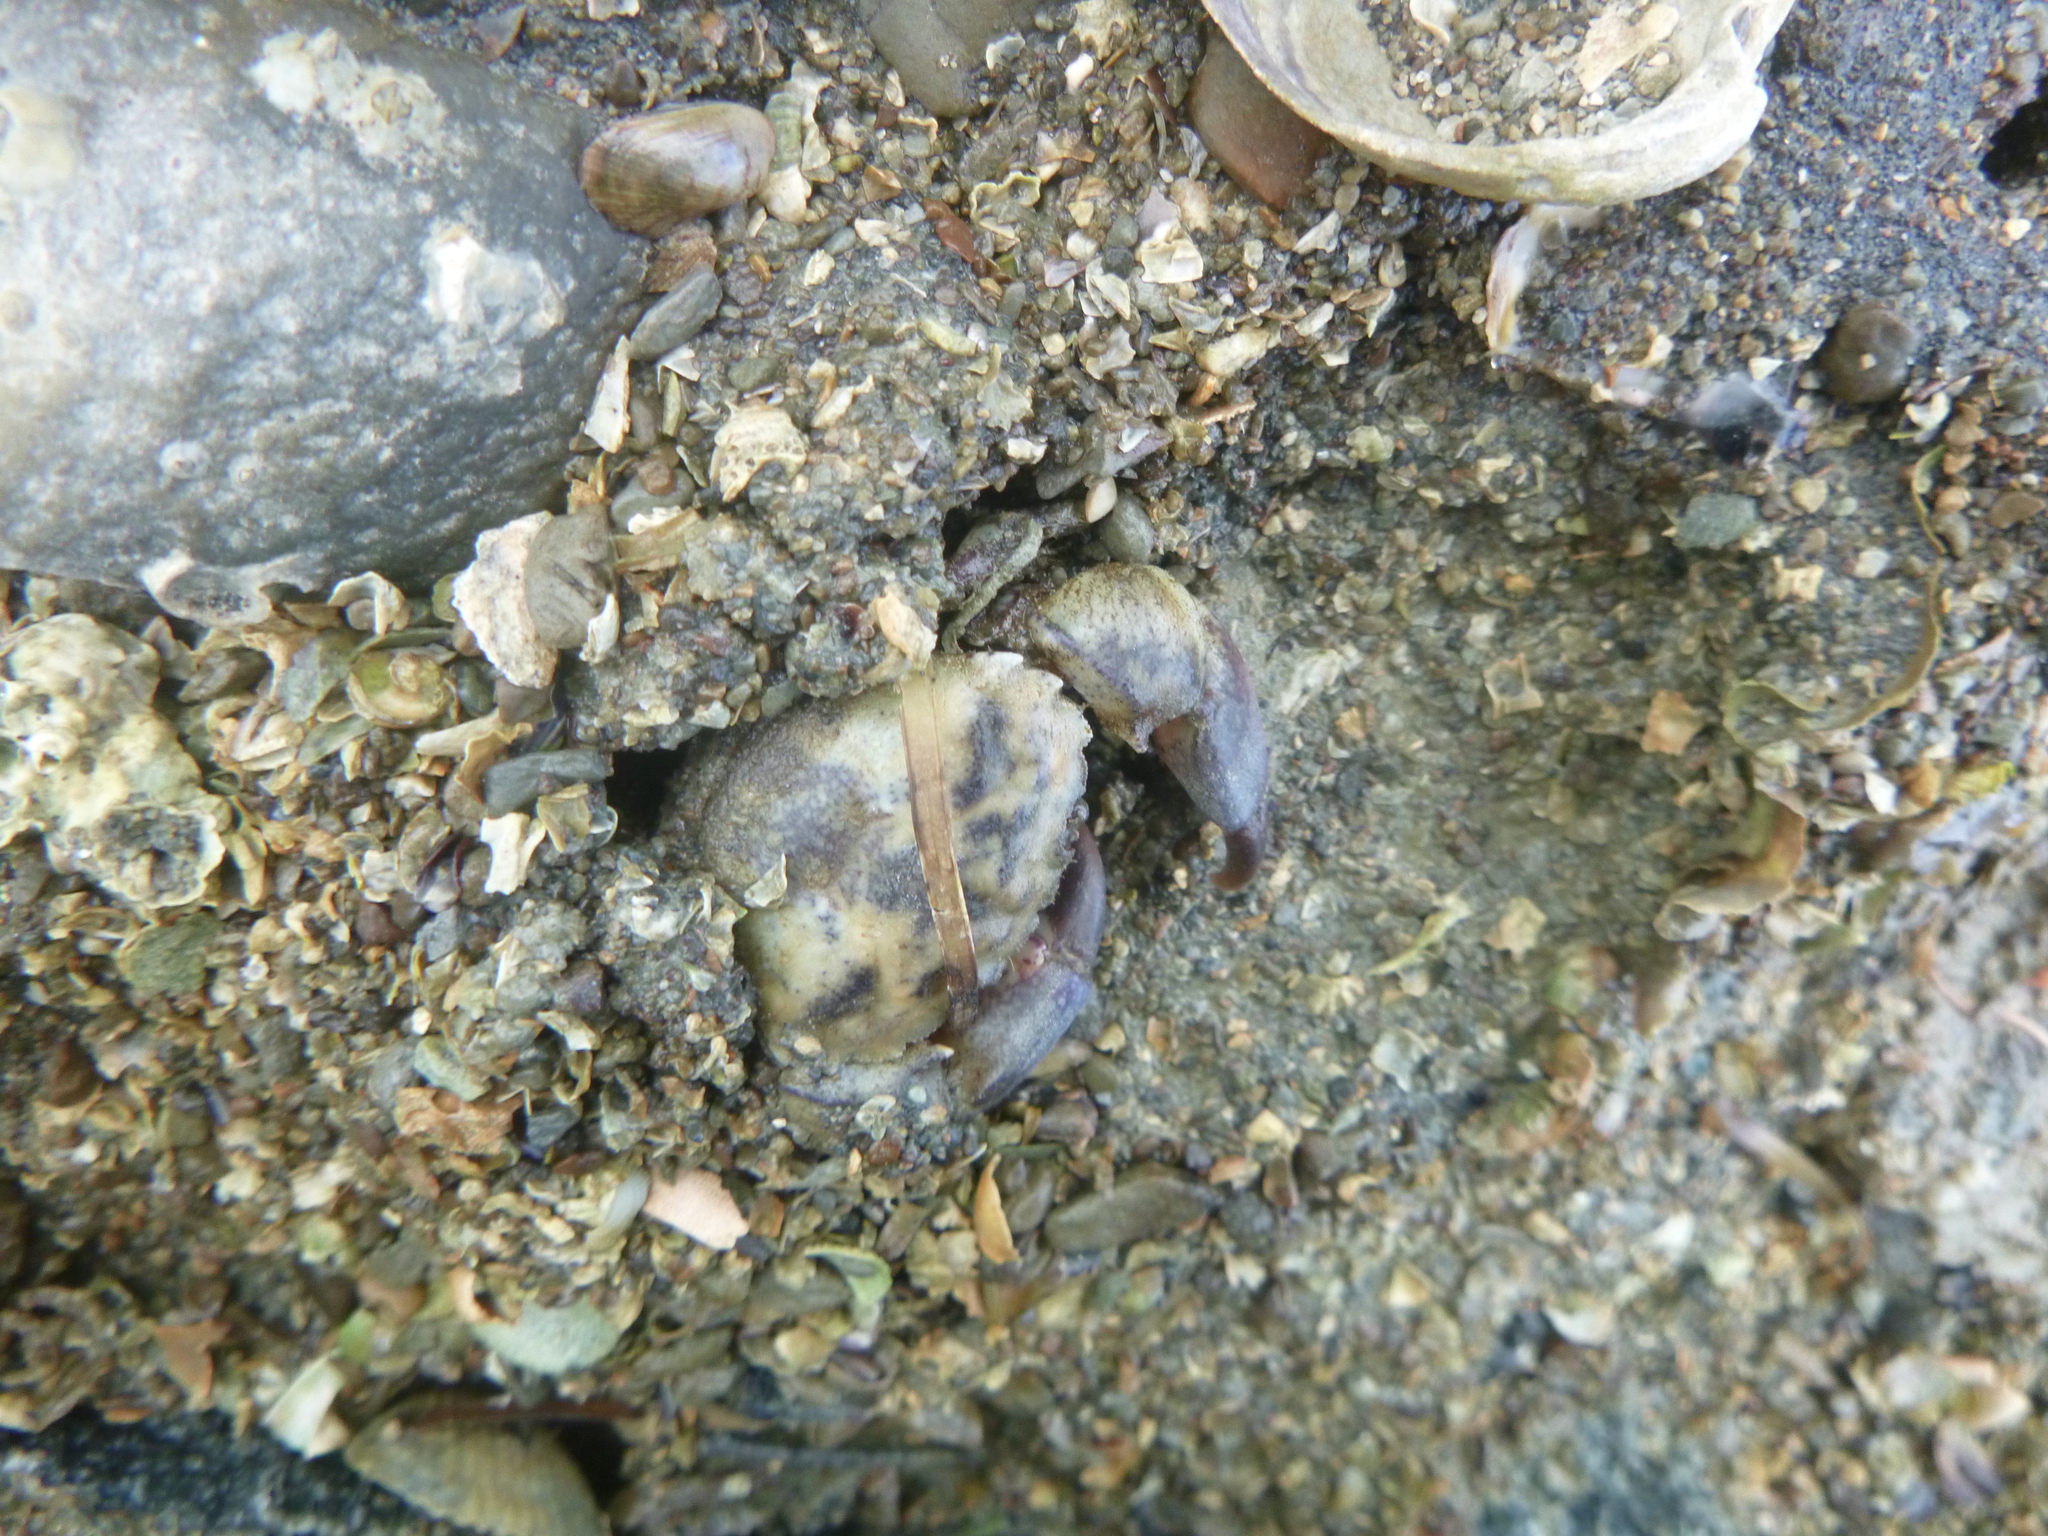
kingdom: Animalia
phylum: Arthropoda
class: Malacostraca
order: Decapoda
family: Pilumnidae
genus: Pilumnopeus
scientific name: Pilumnopeus serratifrons
